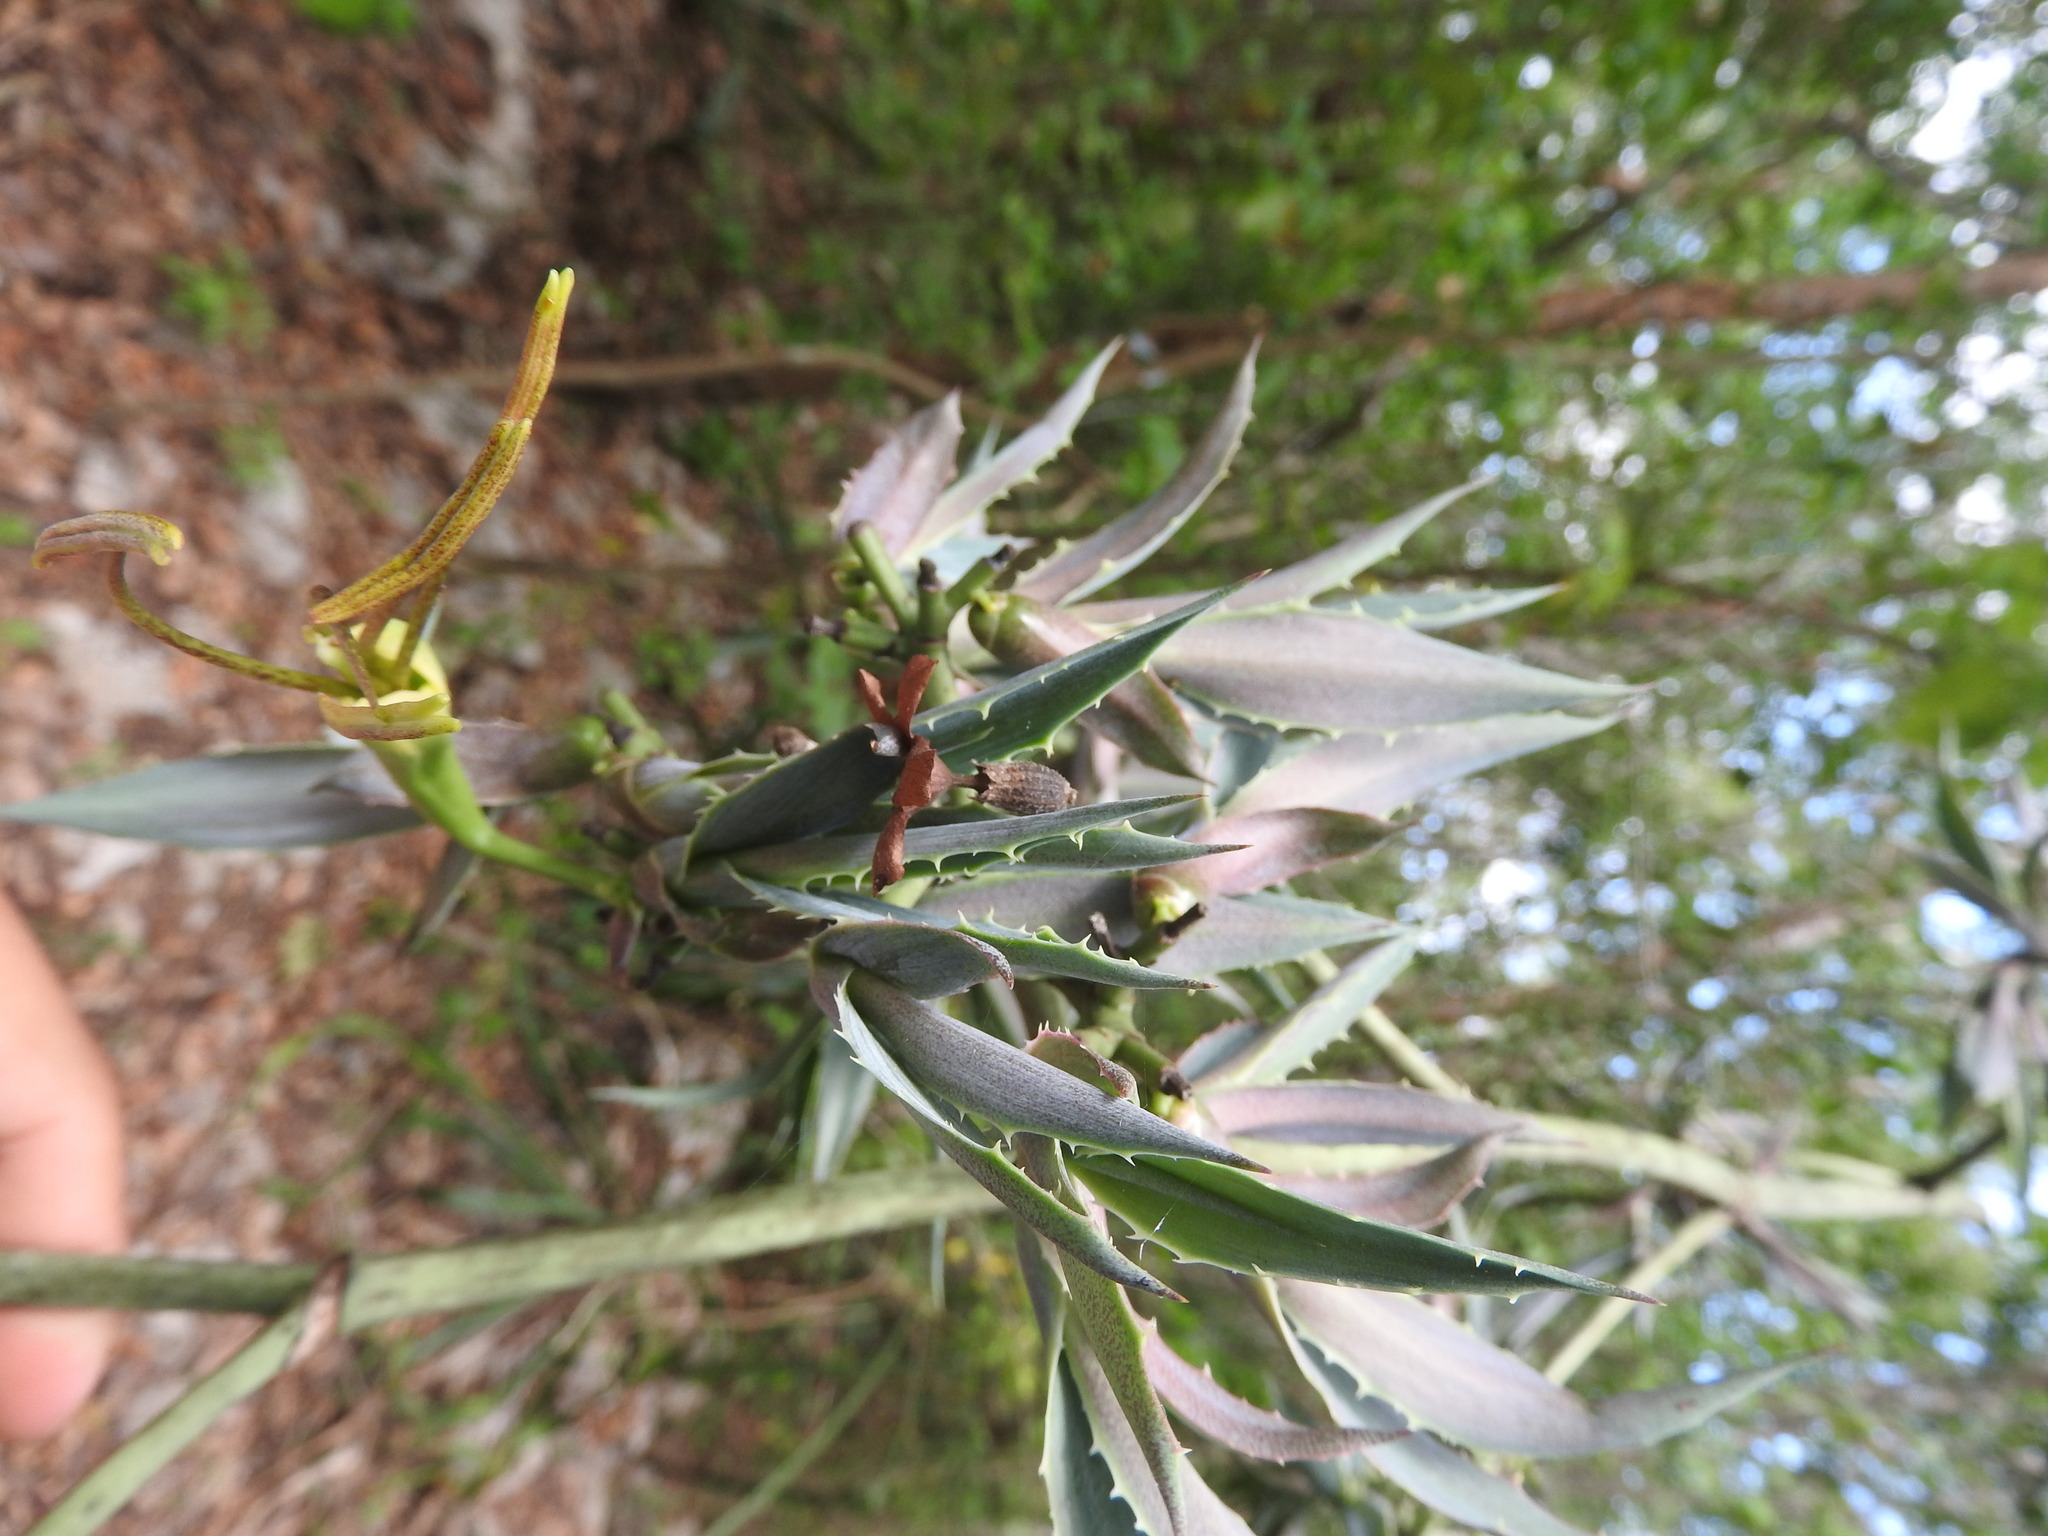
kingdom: Plantae
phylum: Tracheophyta
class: Liliopsida
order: Asparagales
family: Asparagaceae
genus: Agave
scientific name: Agave vivipara
